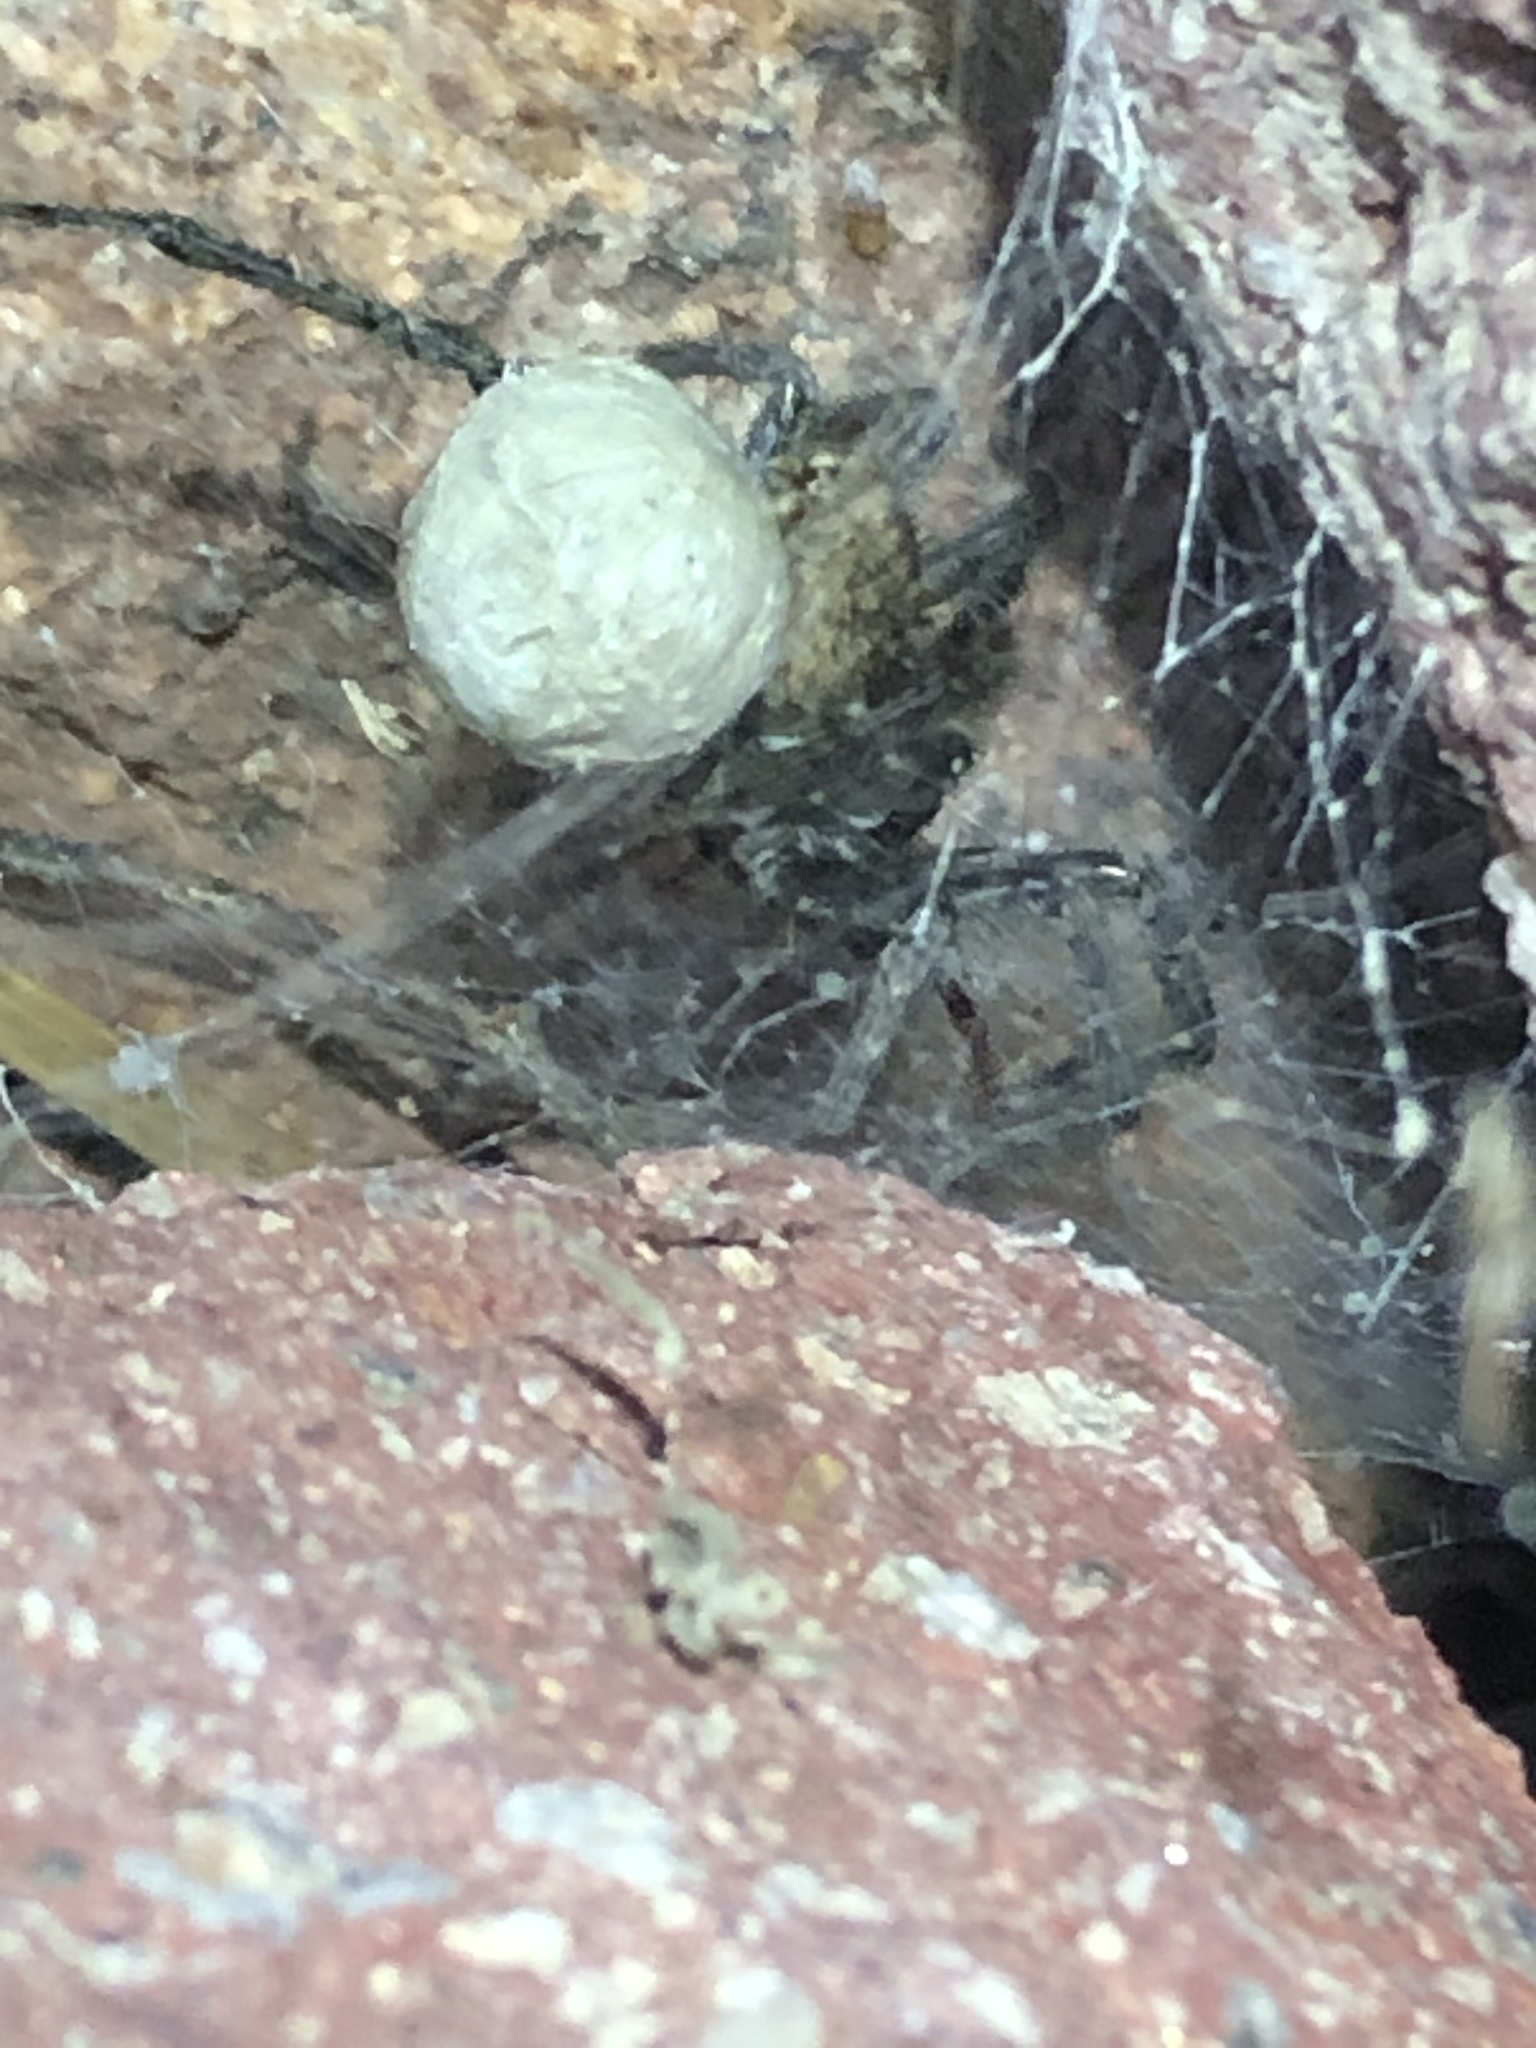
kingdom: Animalia
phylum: Arthropoda
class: Arachnida
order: Araneae
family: Lycosidae
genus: Sosippus
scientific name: Sosippus californicus
